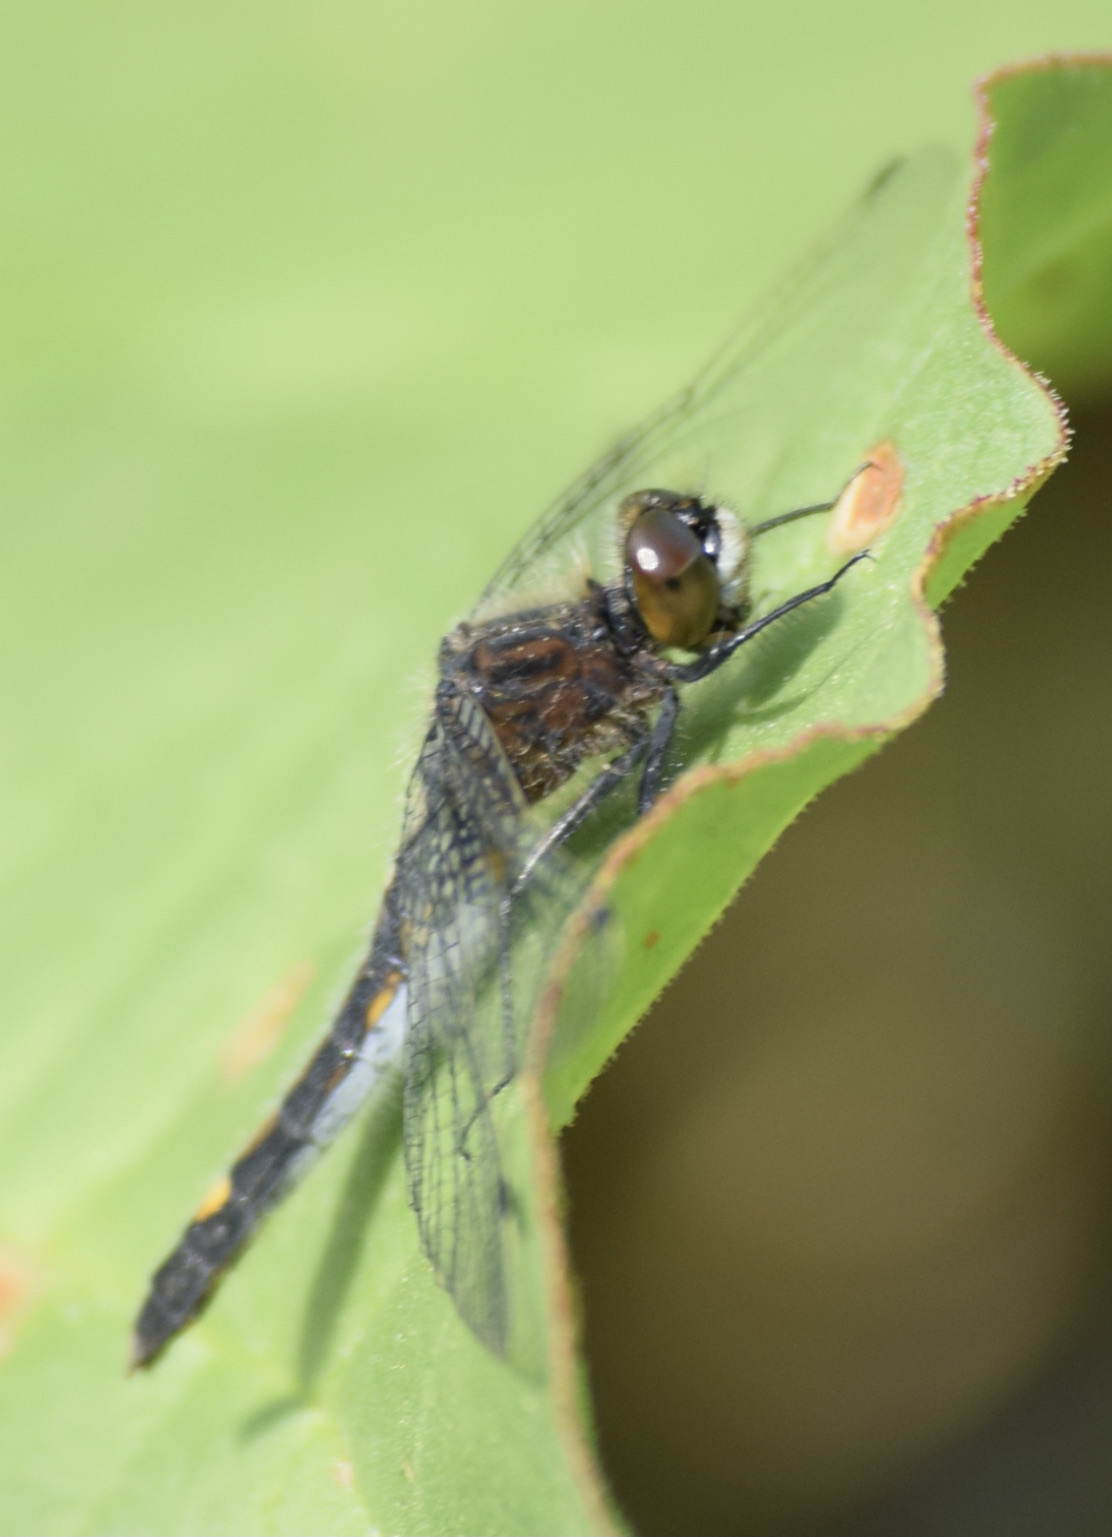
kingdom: Animalia
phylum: Arthropoda
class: Insecta
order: Odonata
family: Libellulidae
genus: Leucorrhinia
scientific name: Leucorrhinia intacta
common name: Dot-tailed whiteface
